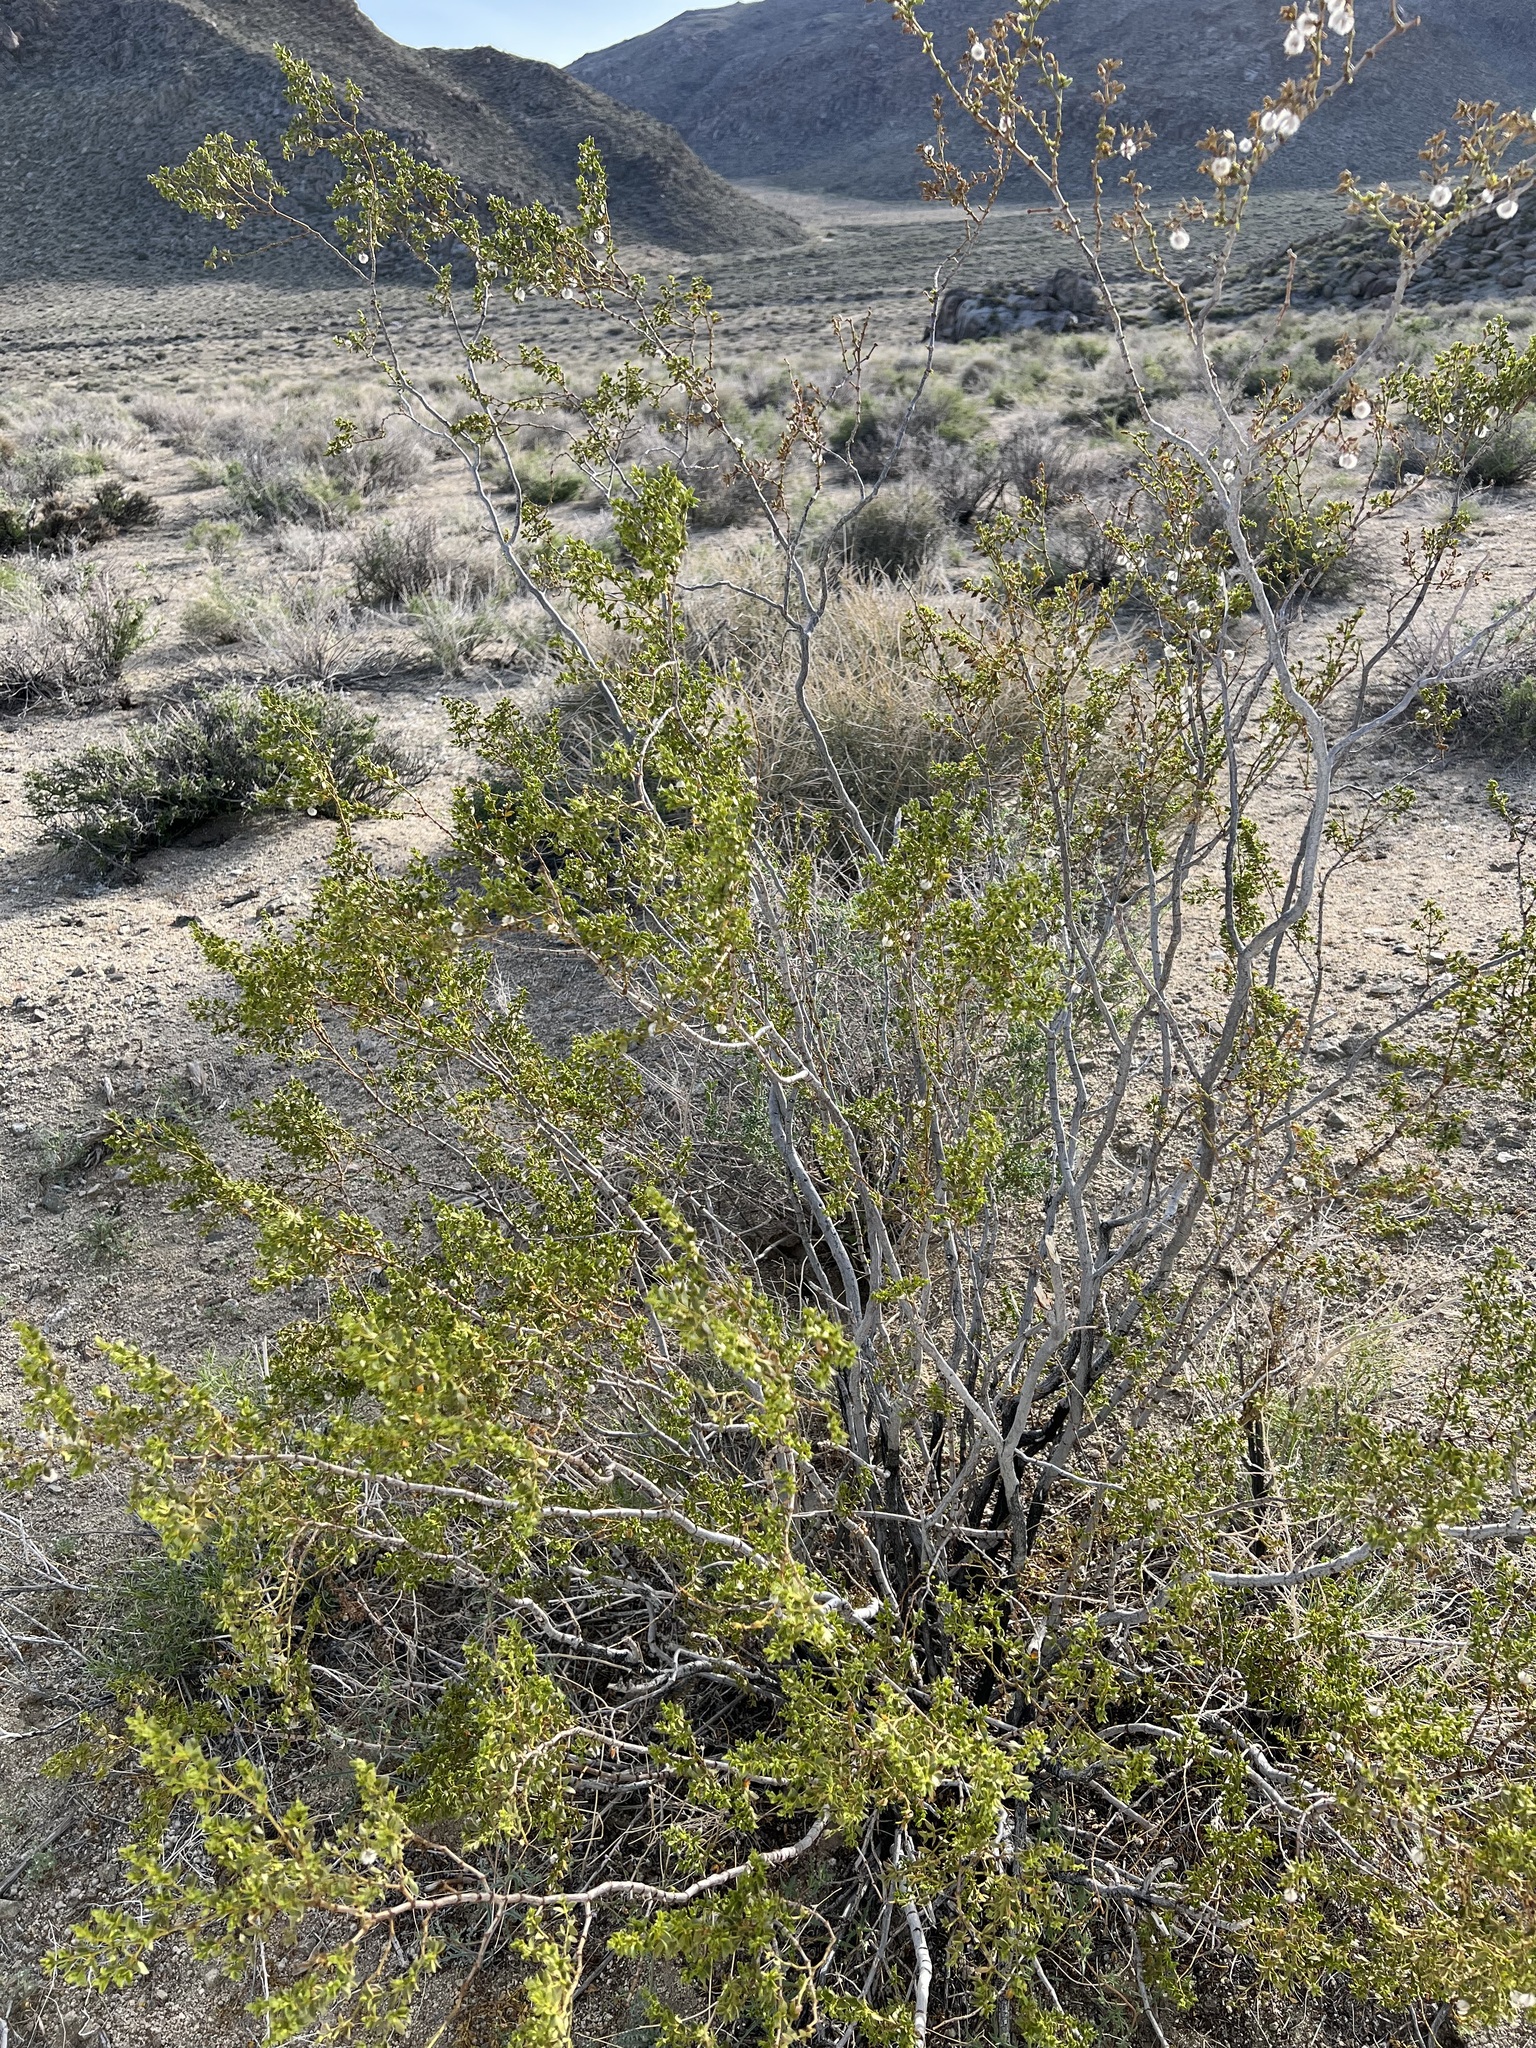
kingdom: Plantae
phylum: Tracheophyta
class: Magnoliopsida
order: Zygophyllales
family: Zygophyllaceae
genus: Larrea
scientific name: Larrea tridentata
